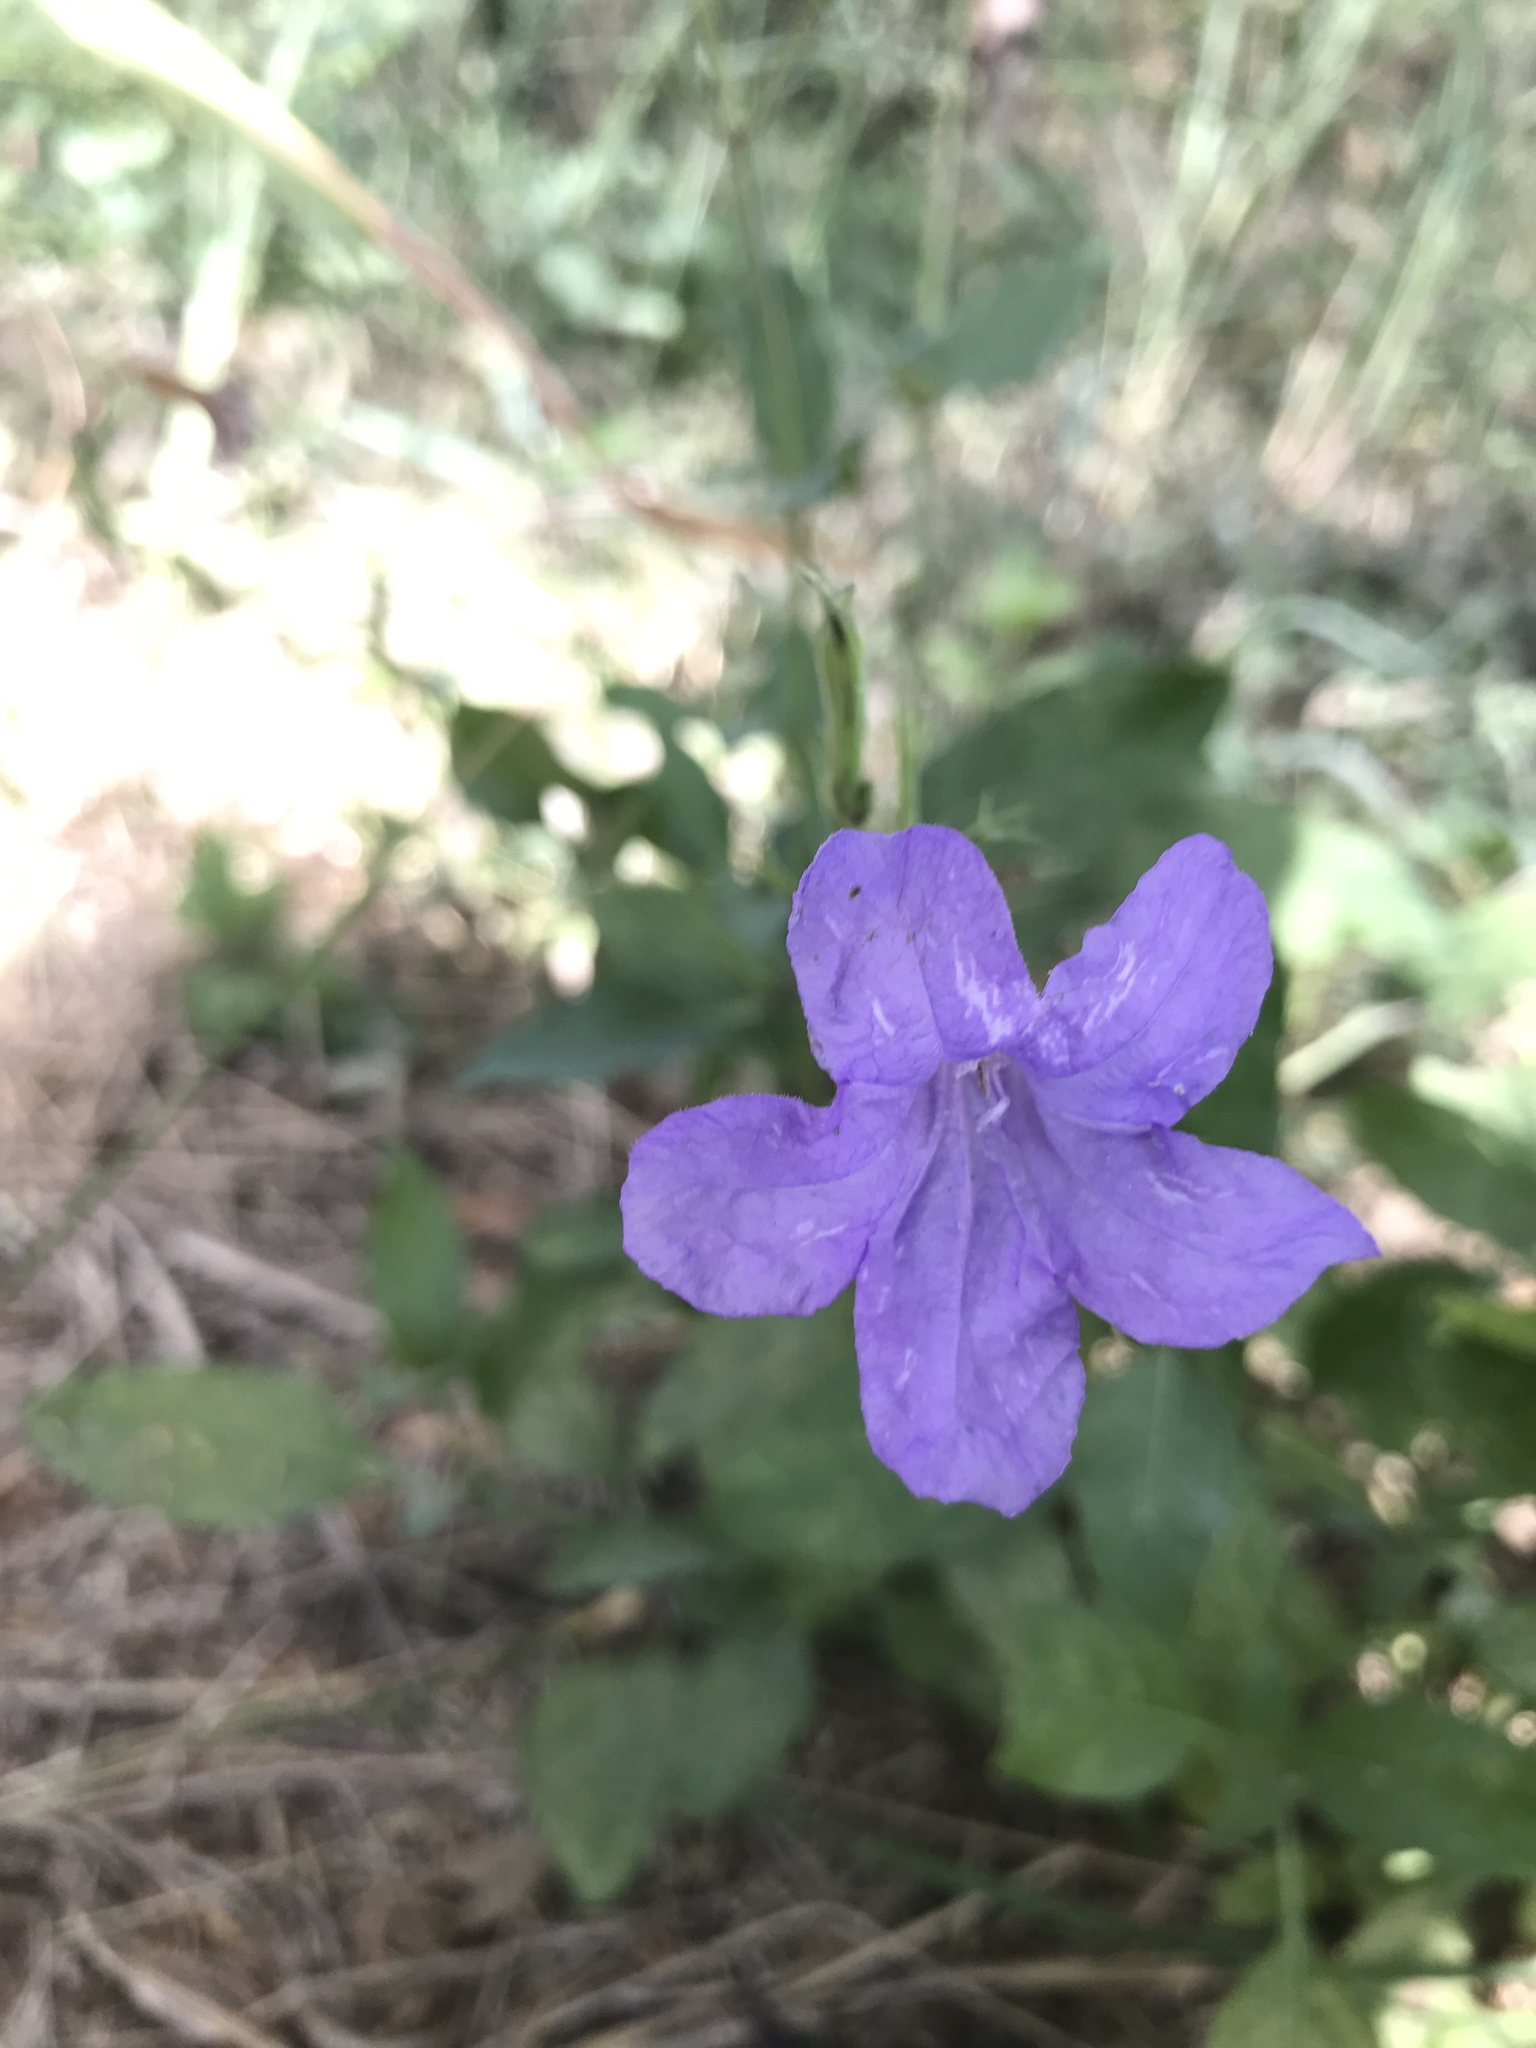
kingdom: Plantae
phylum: Tracheophyta
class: Magnoliopsida
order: Lamiales
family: Acanthaceae
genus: Ruellia
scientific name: Ruellia ciliatiflora
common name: Hairyflower wild petunia
